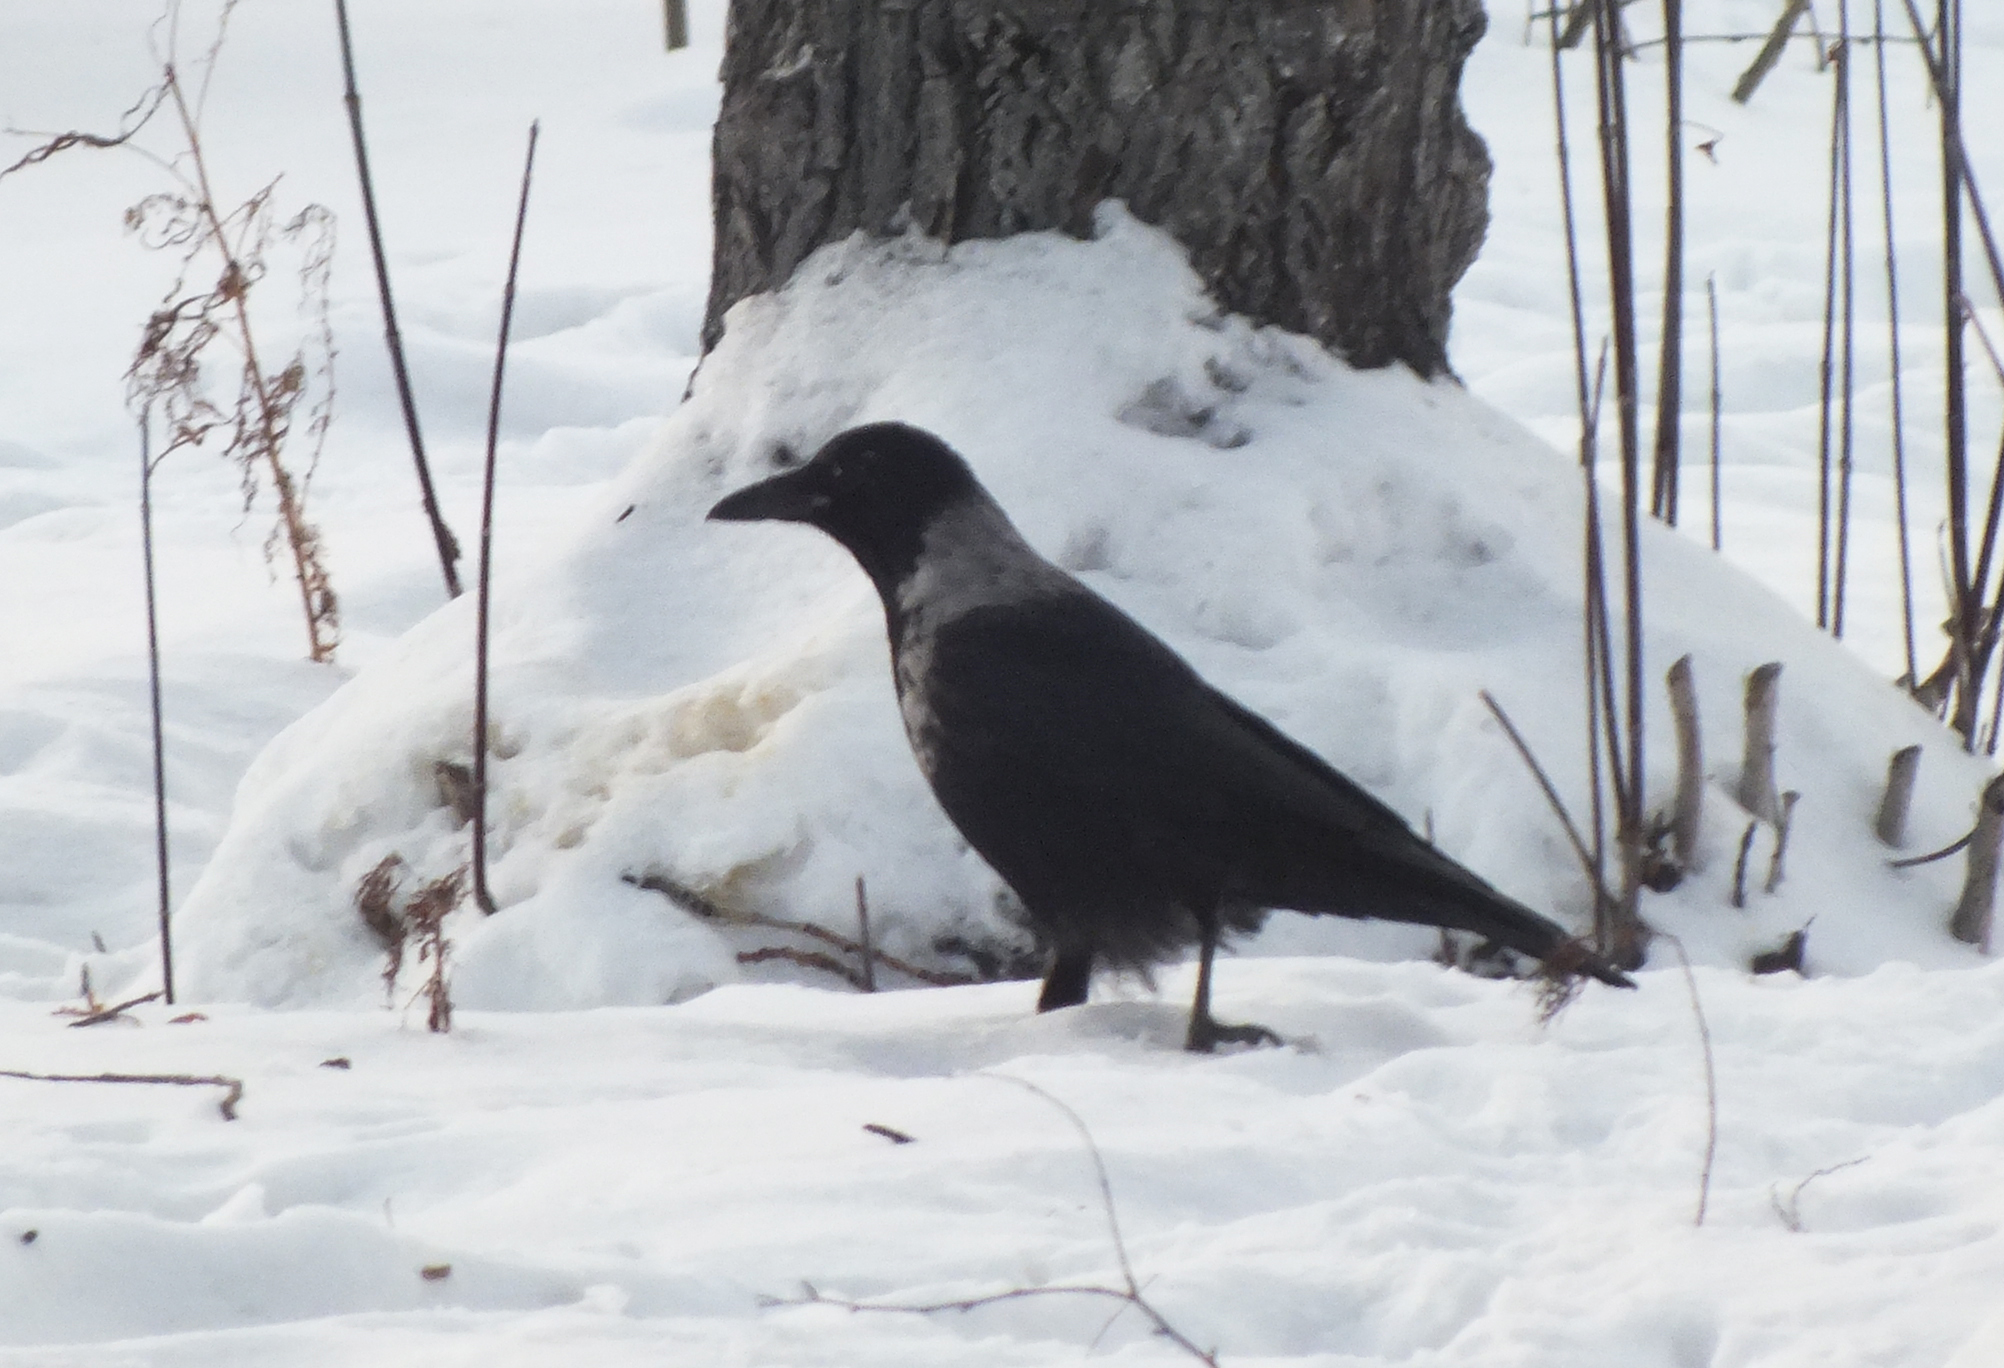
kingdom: Animalia
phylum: Chordata
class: Aves
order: Passeriformes
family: Corvidae
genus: Corvus
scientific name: Corvus
